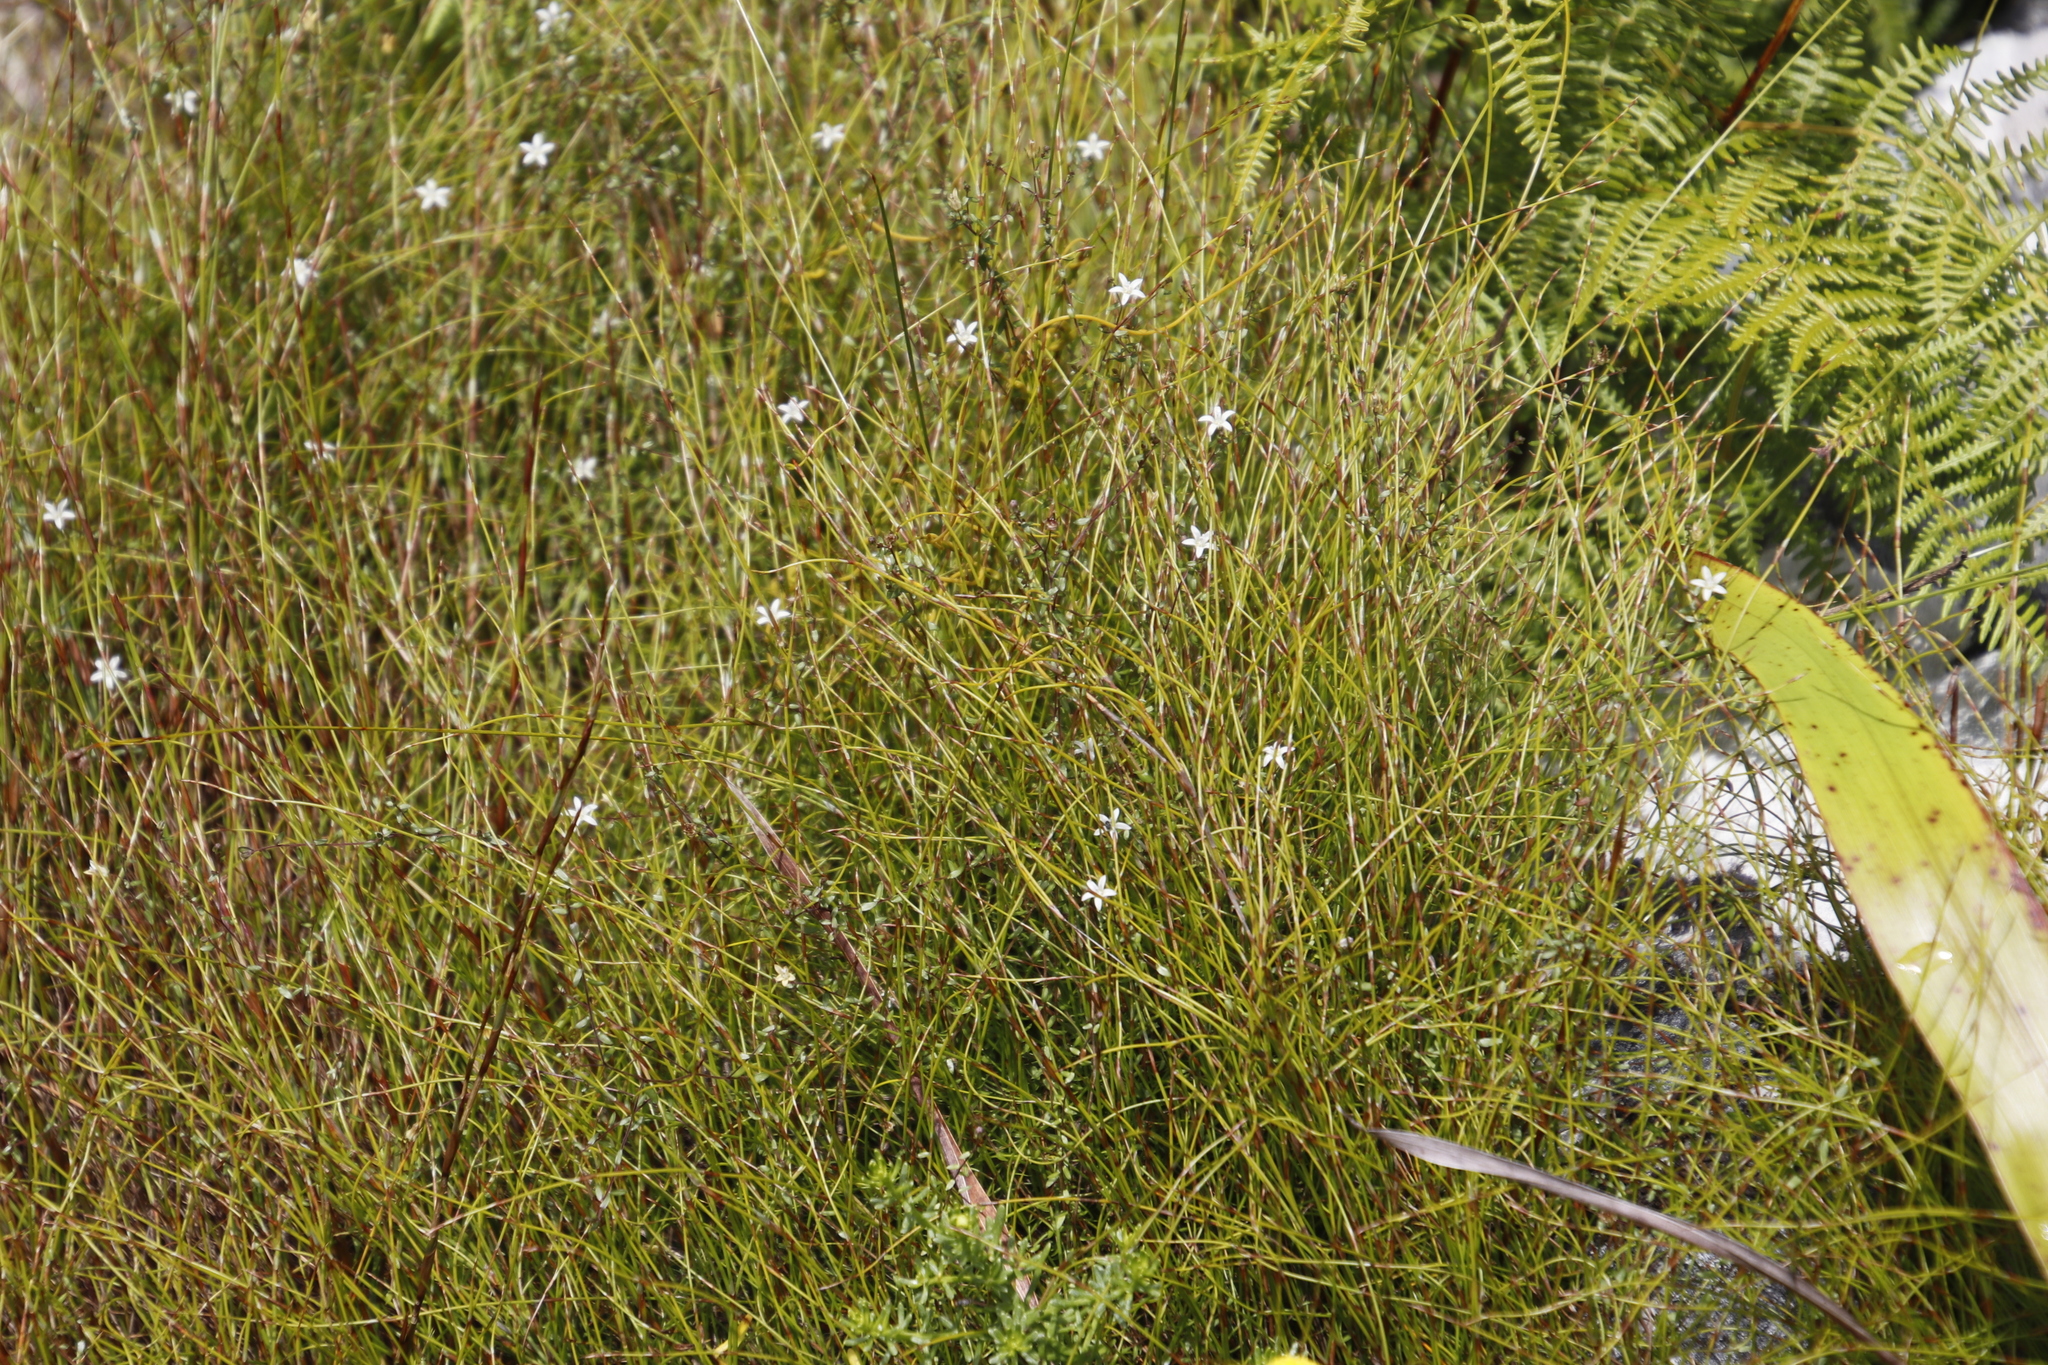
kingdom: Plantae
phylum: Tracheophyta
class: Magnoliopsida
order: Asterales
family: Campanulaceae
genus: Wahlenbergia
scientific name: Wahlenbergia parvifolia
